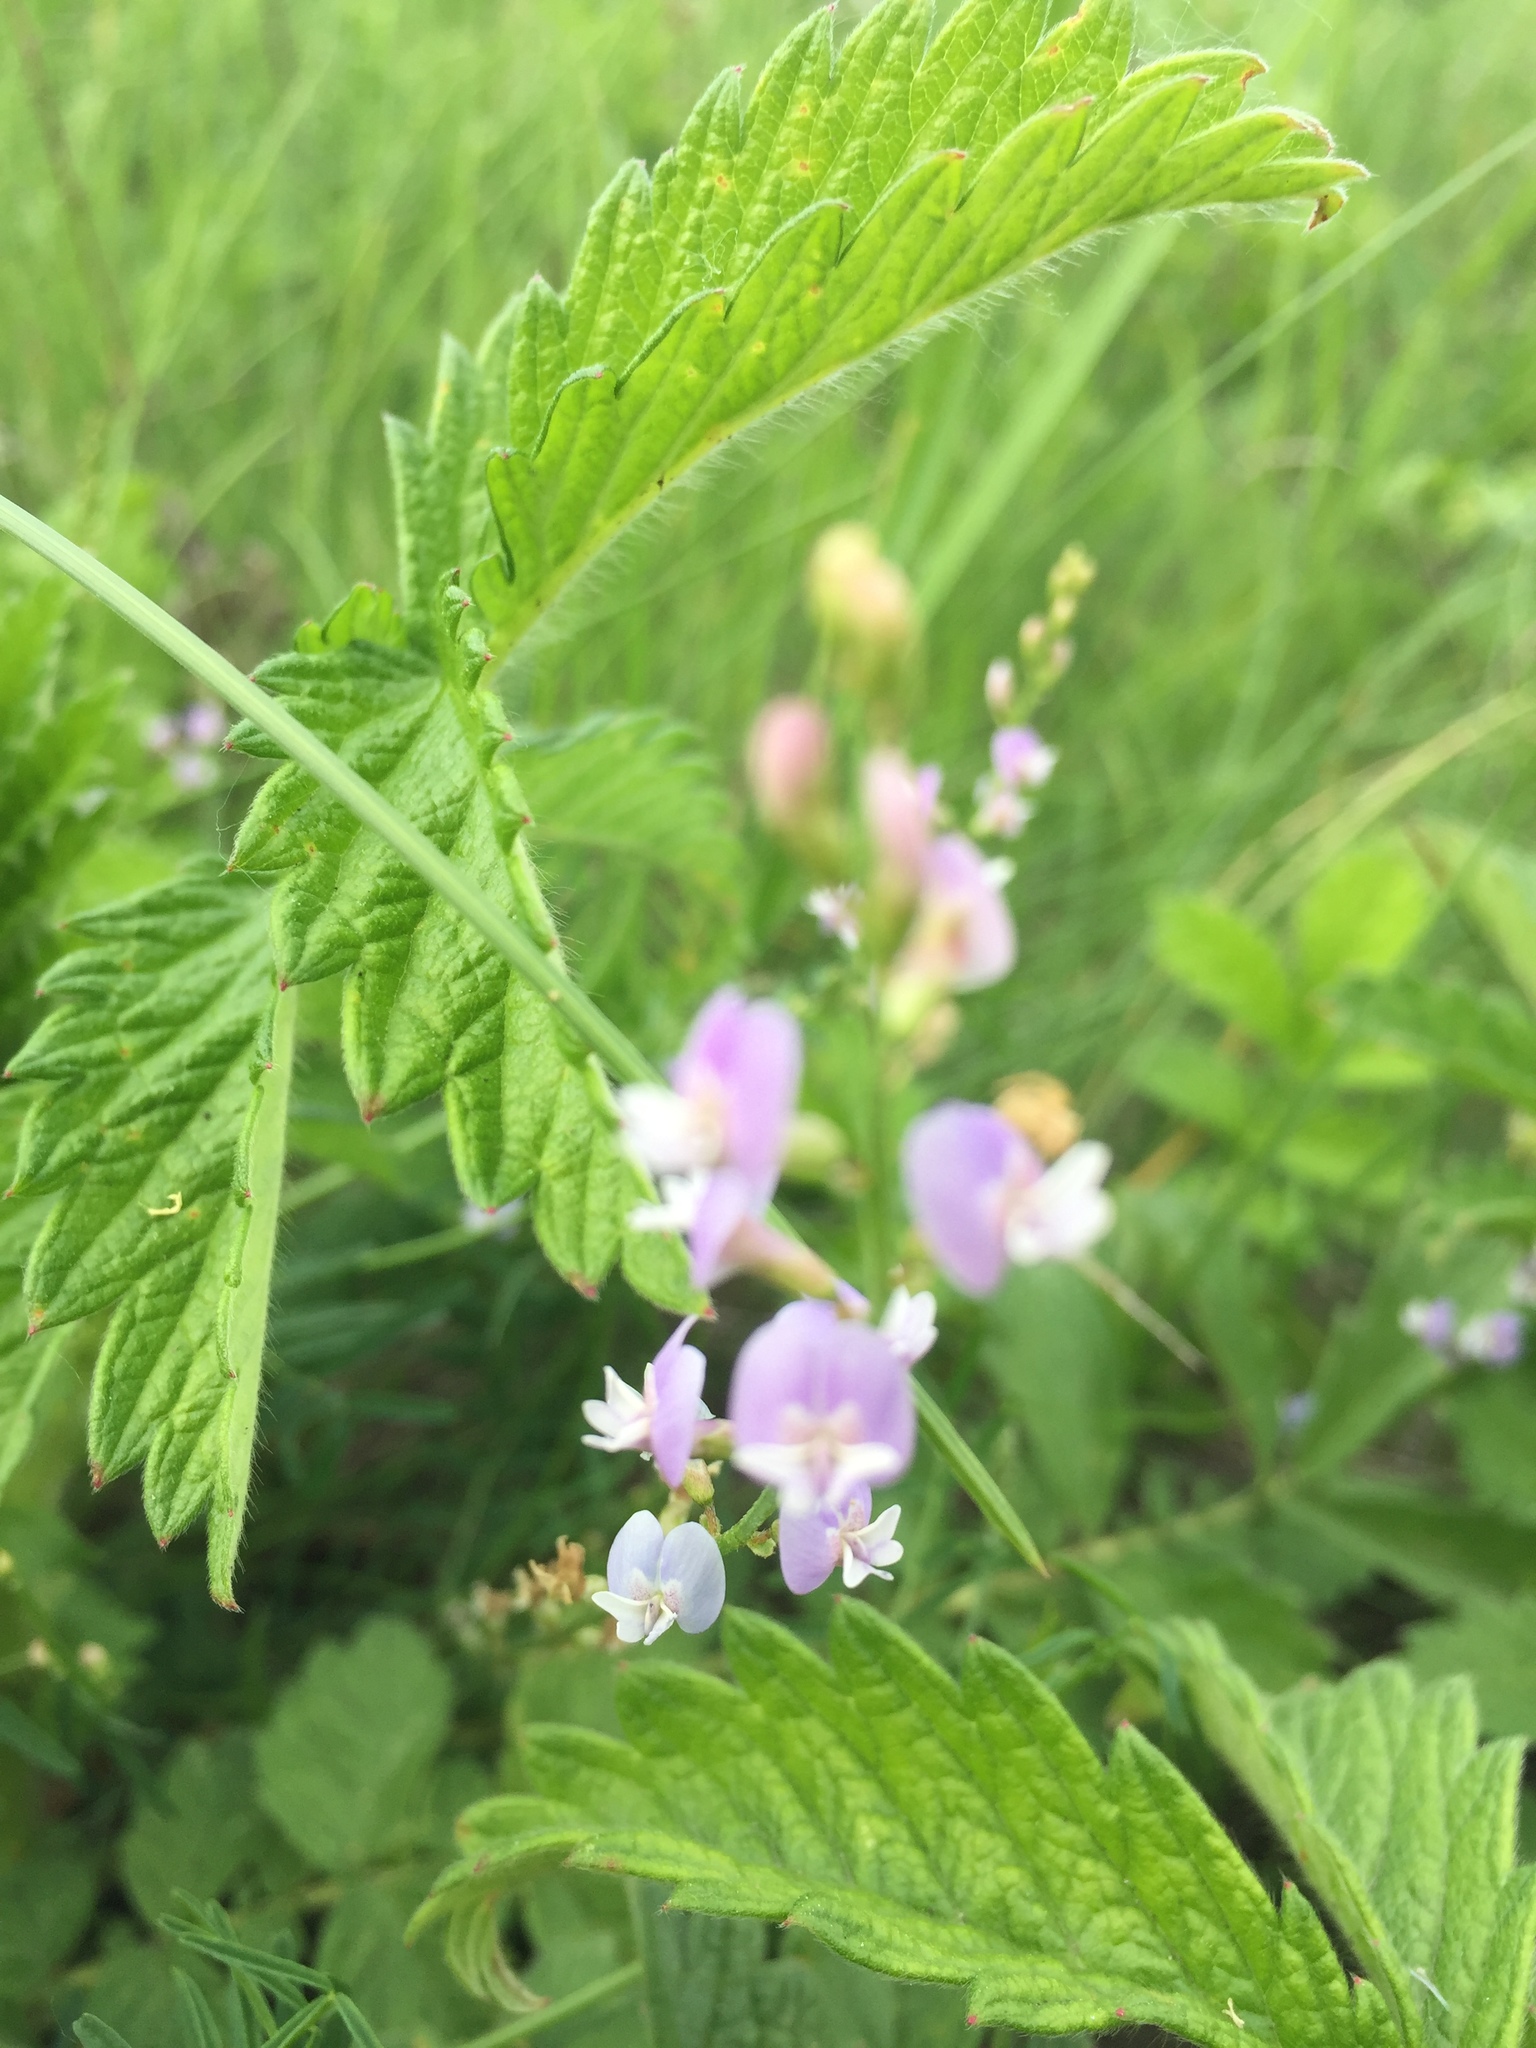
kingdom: Plantae
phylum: Tracheophyta
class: Magnoliopsida
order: Fabales
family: Fabaceae
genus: Astragalus
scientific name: Astragalus austriacus
